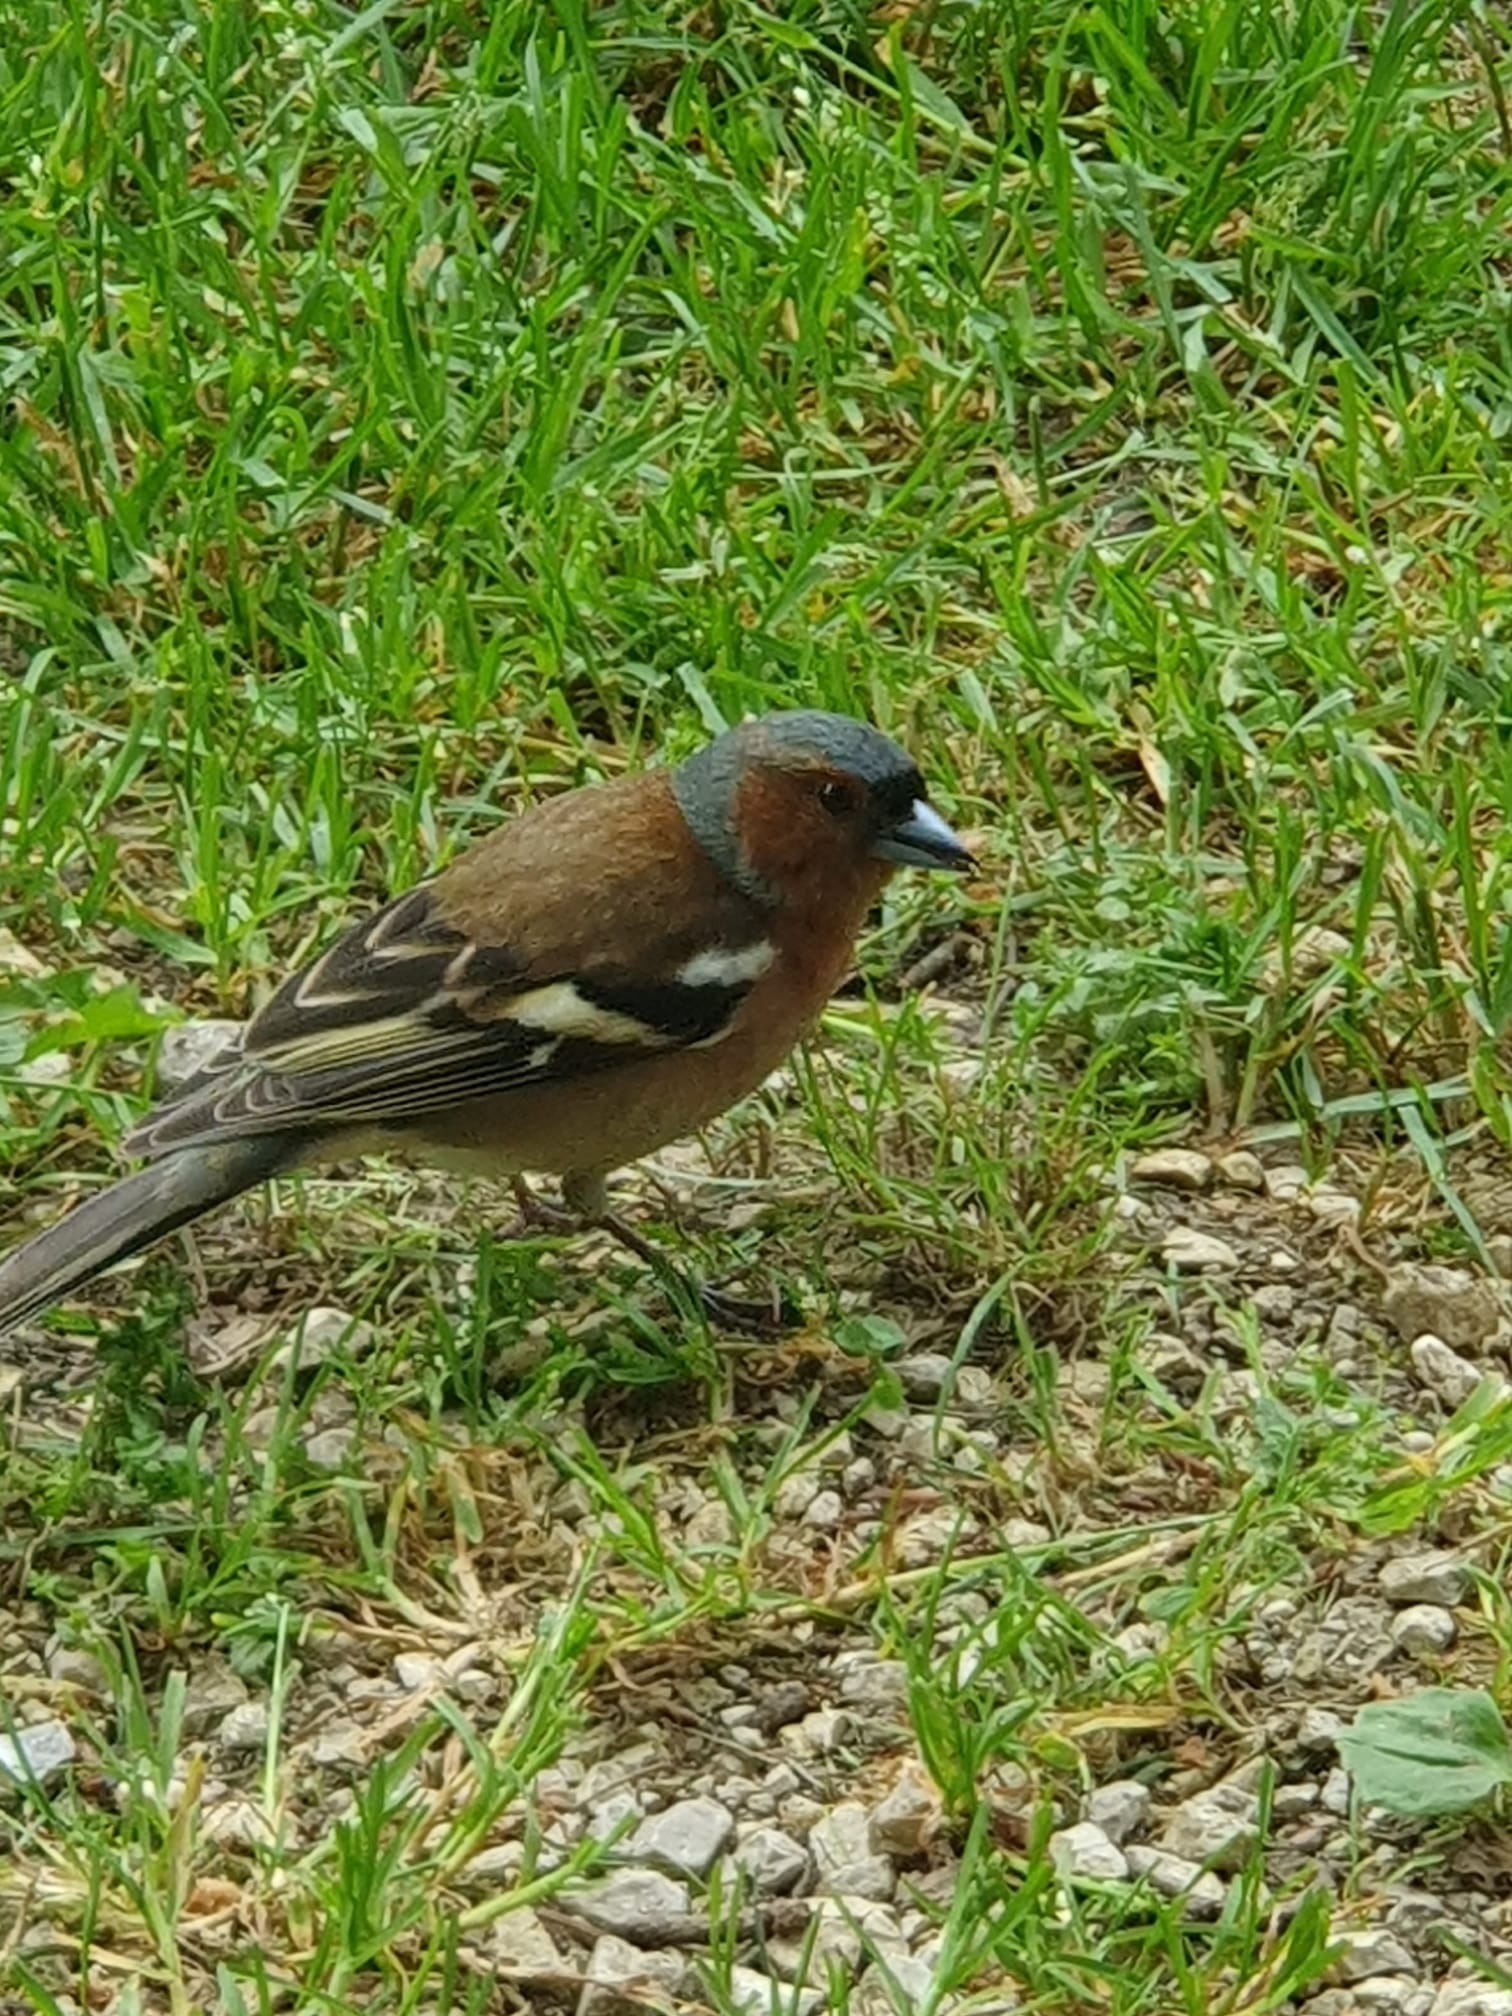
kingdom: Animalia
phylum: Chordata
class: Aves
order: Passeriformes
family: Fringillidae
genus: Fringilla
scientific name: Fringilla coelebs
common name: Common chaffinch
